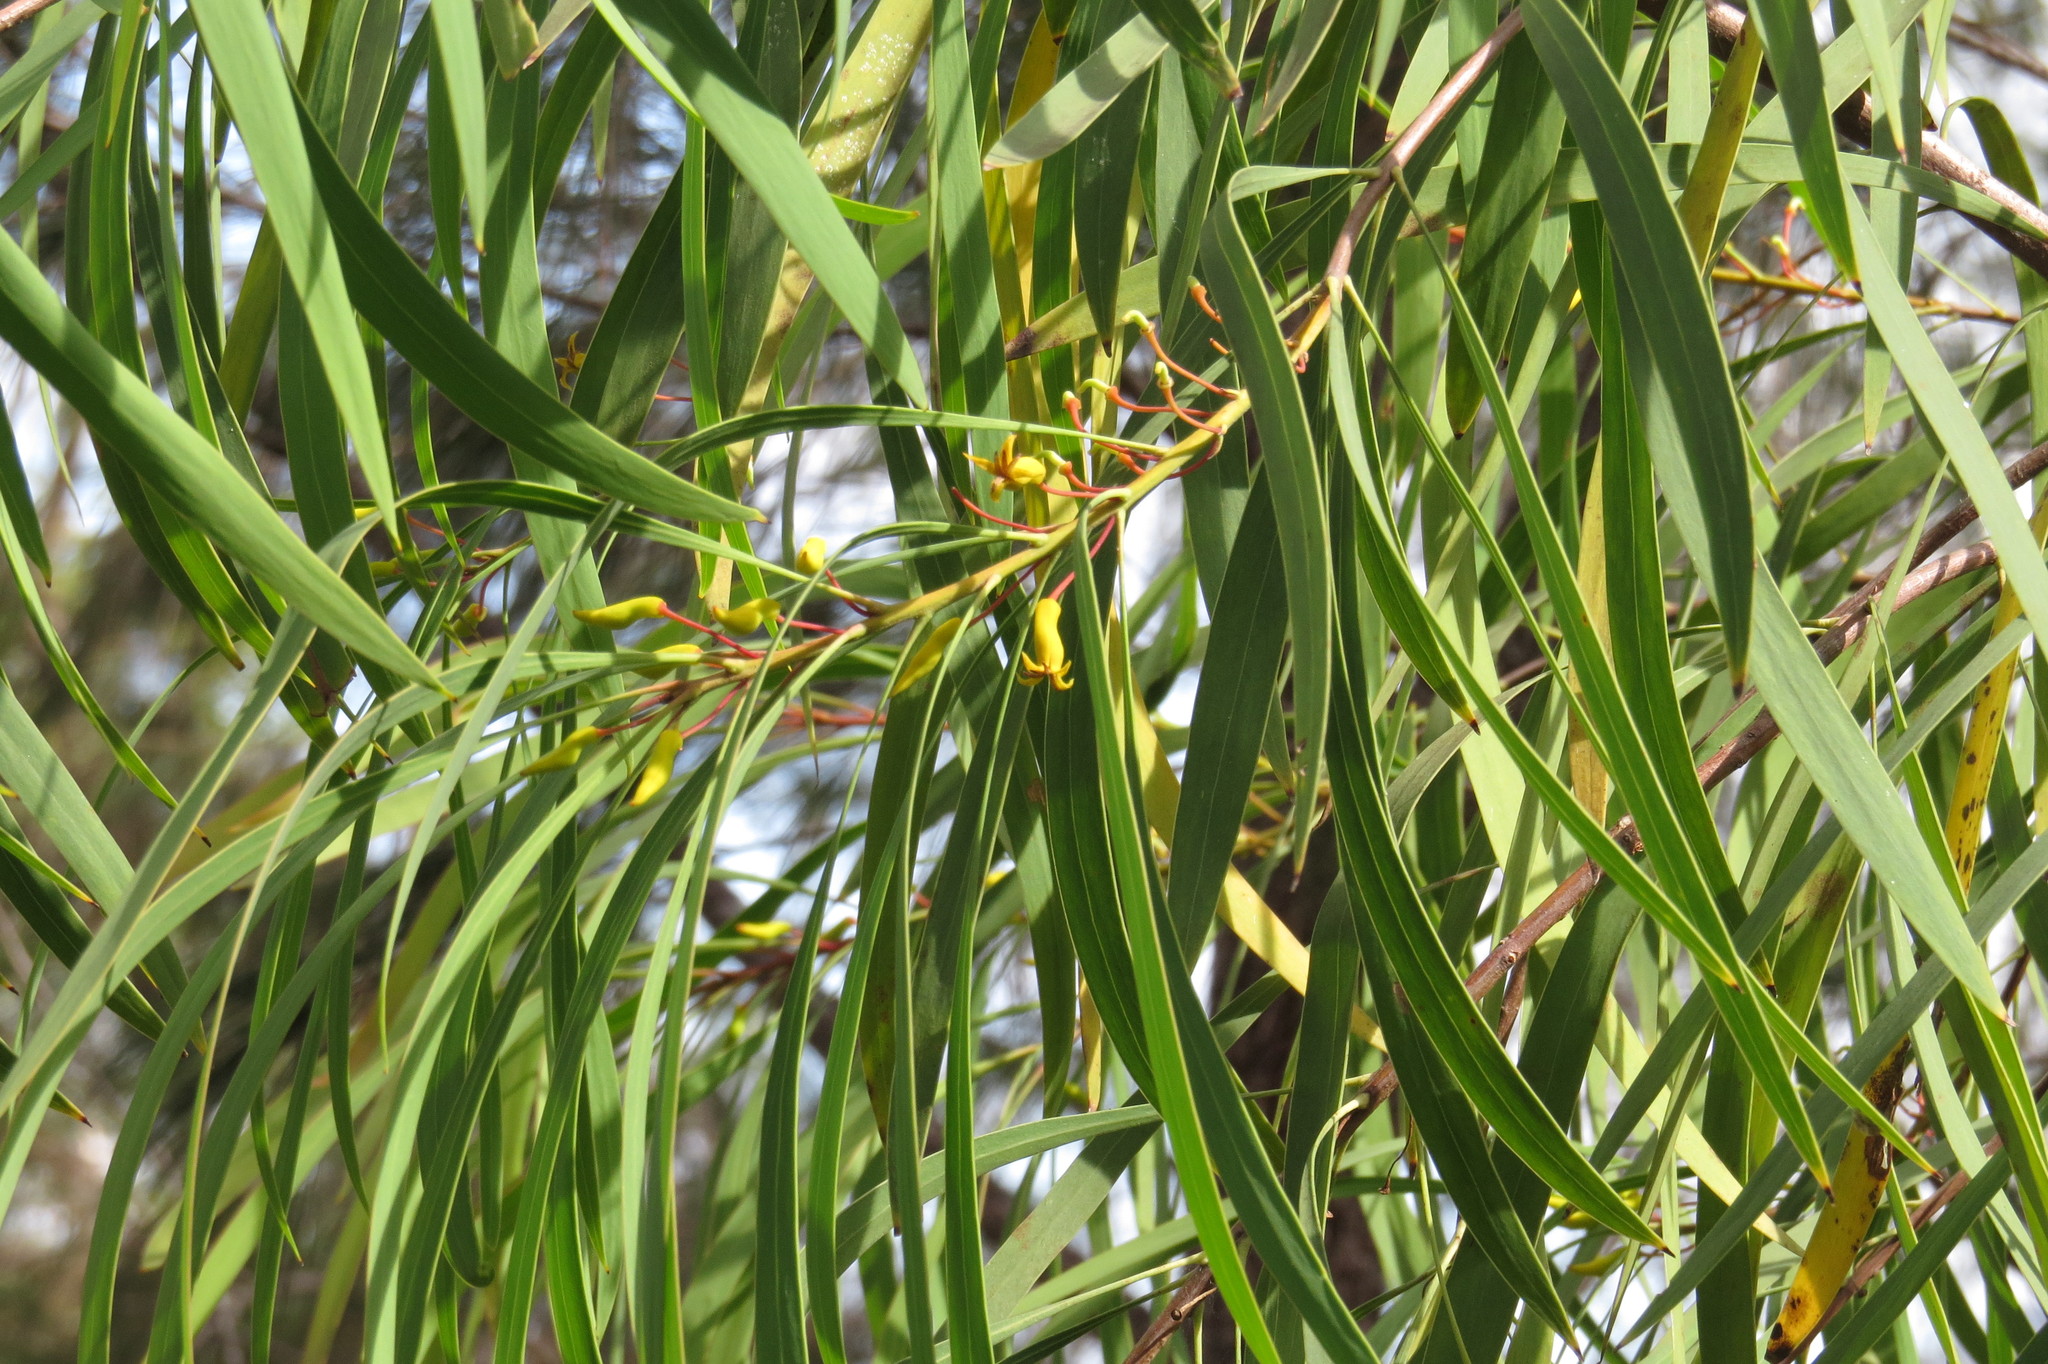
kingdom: Plantae
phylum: Tracheophyta
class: Magnoliopsida
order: Proteales
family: Proteaceae
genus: Persoonia
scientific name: Persoonia falcata
